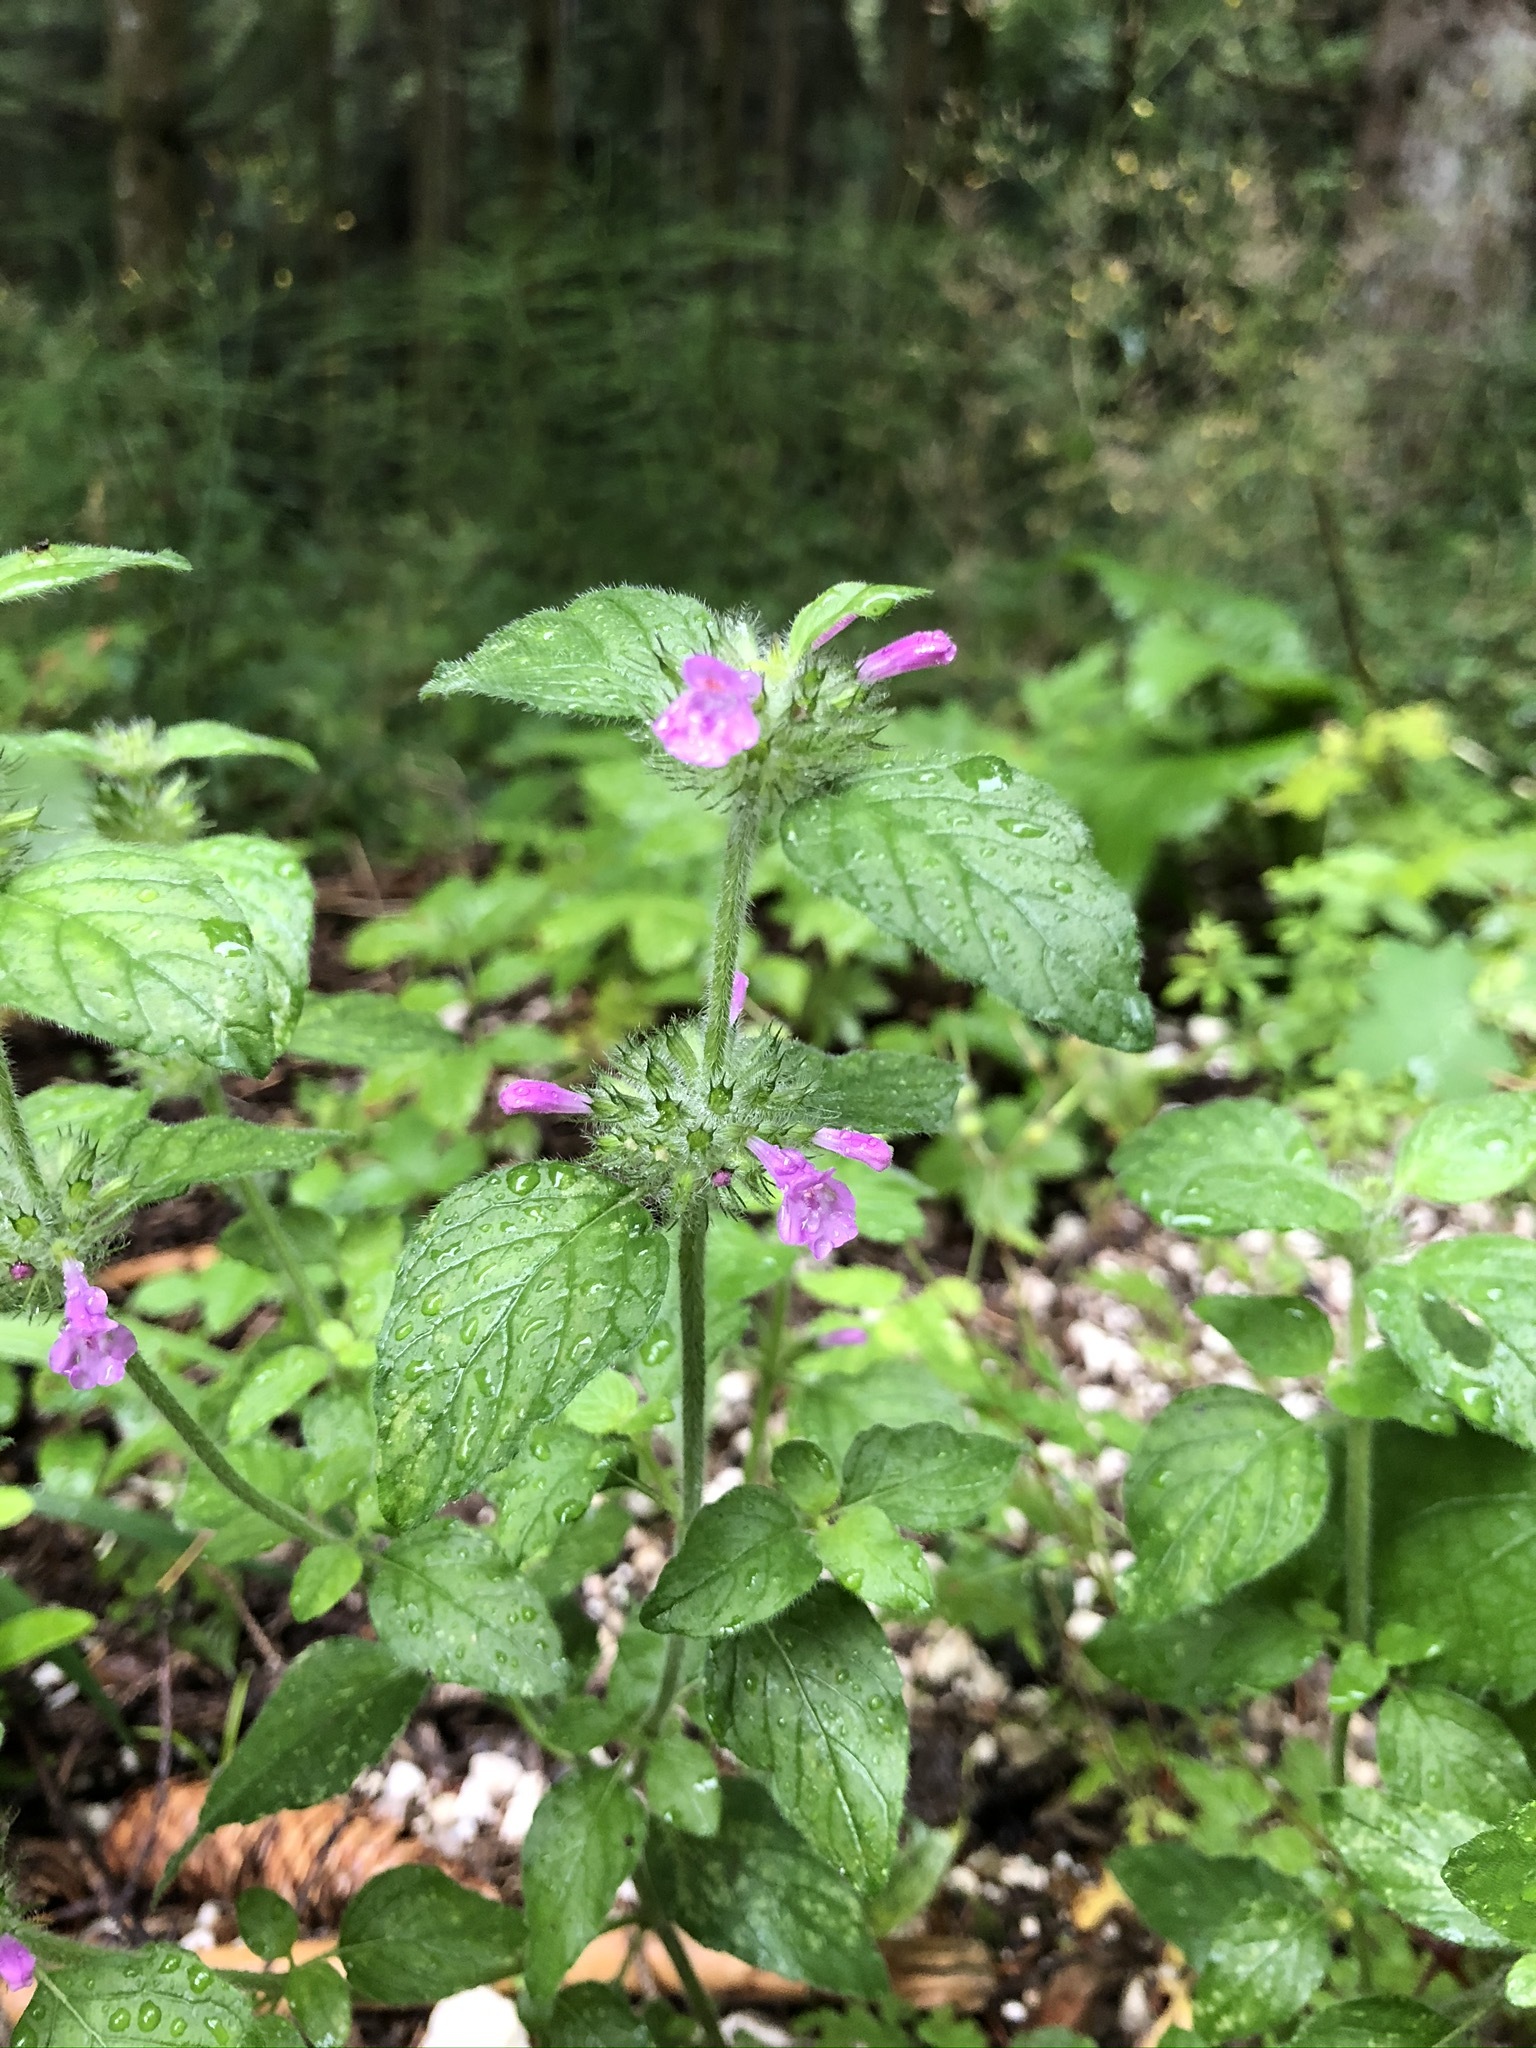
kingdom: Plantae
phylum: Tracheophyta
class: Magnoliopsida
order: Lamiales
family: Lamiaceae
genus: Clinopodium
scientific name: Clinopodium vulgare
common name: Wild basil
